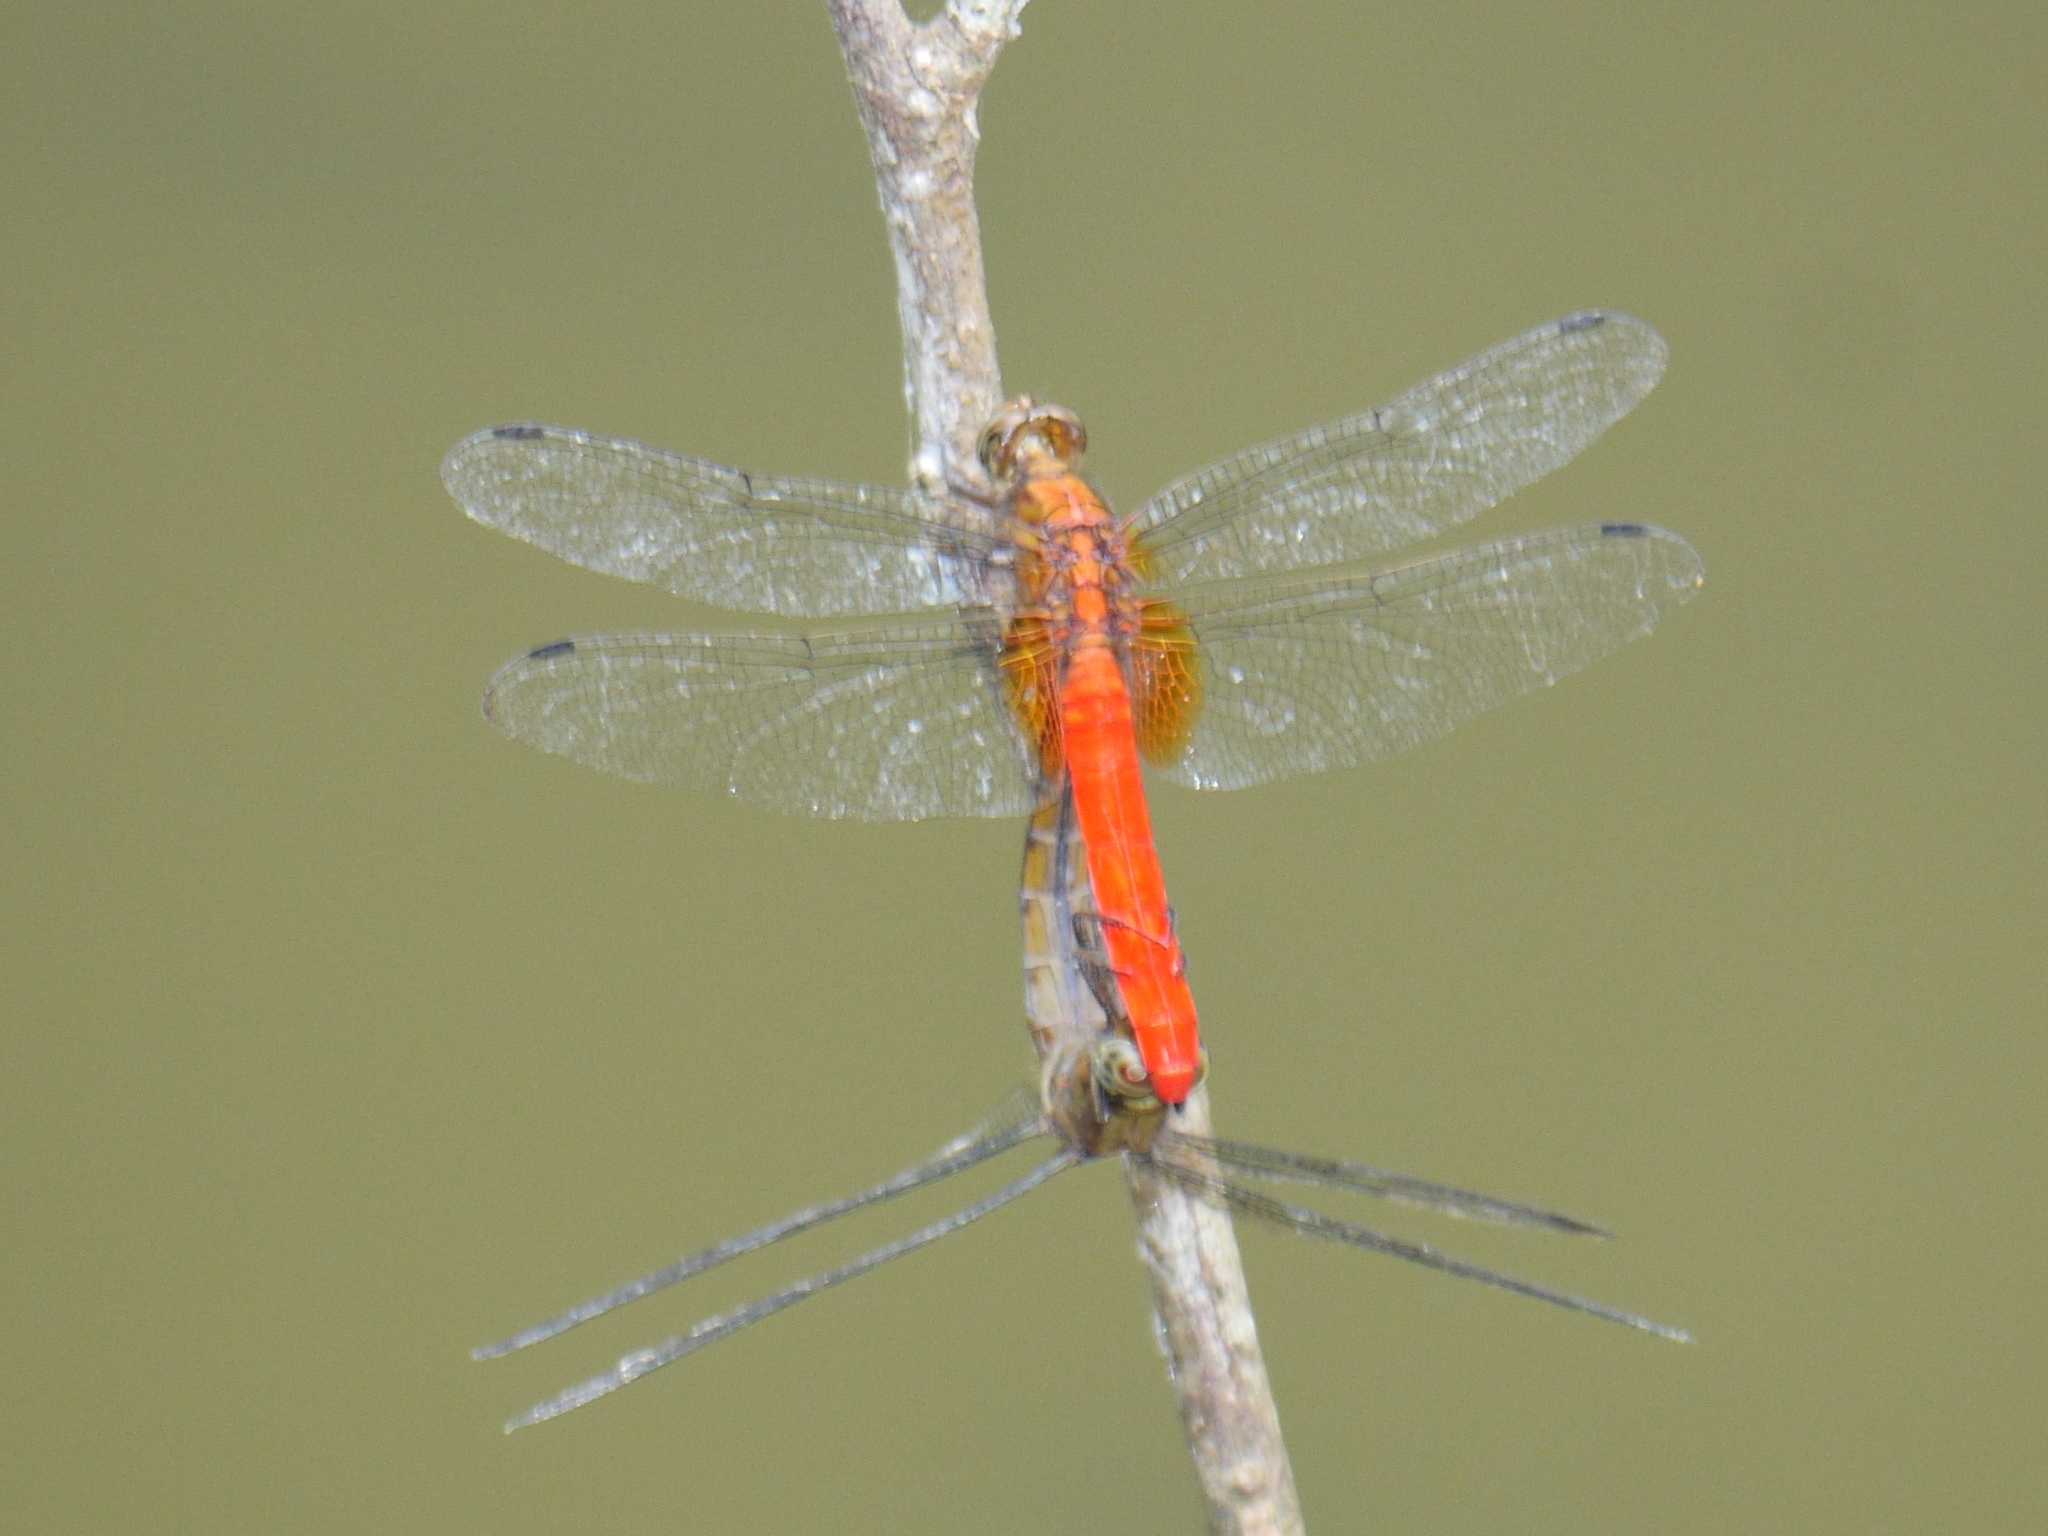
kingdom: Animalia
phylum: Arthropoda
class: Insecta
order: Odonata
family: Libellulidae
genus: Orthetrum
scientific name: Orthetrum testaceum
